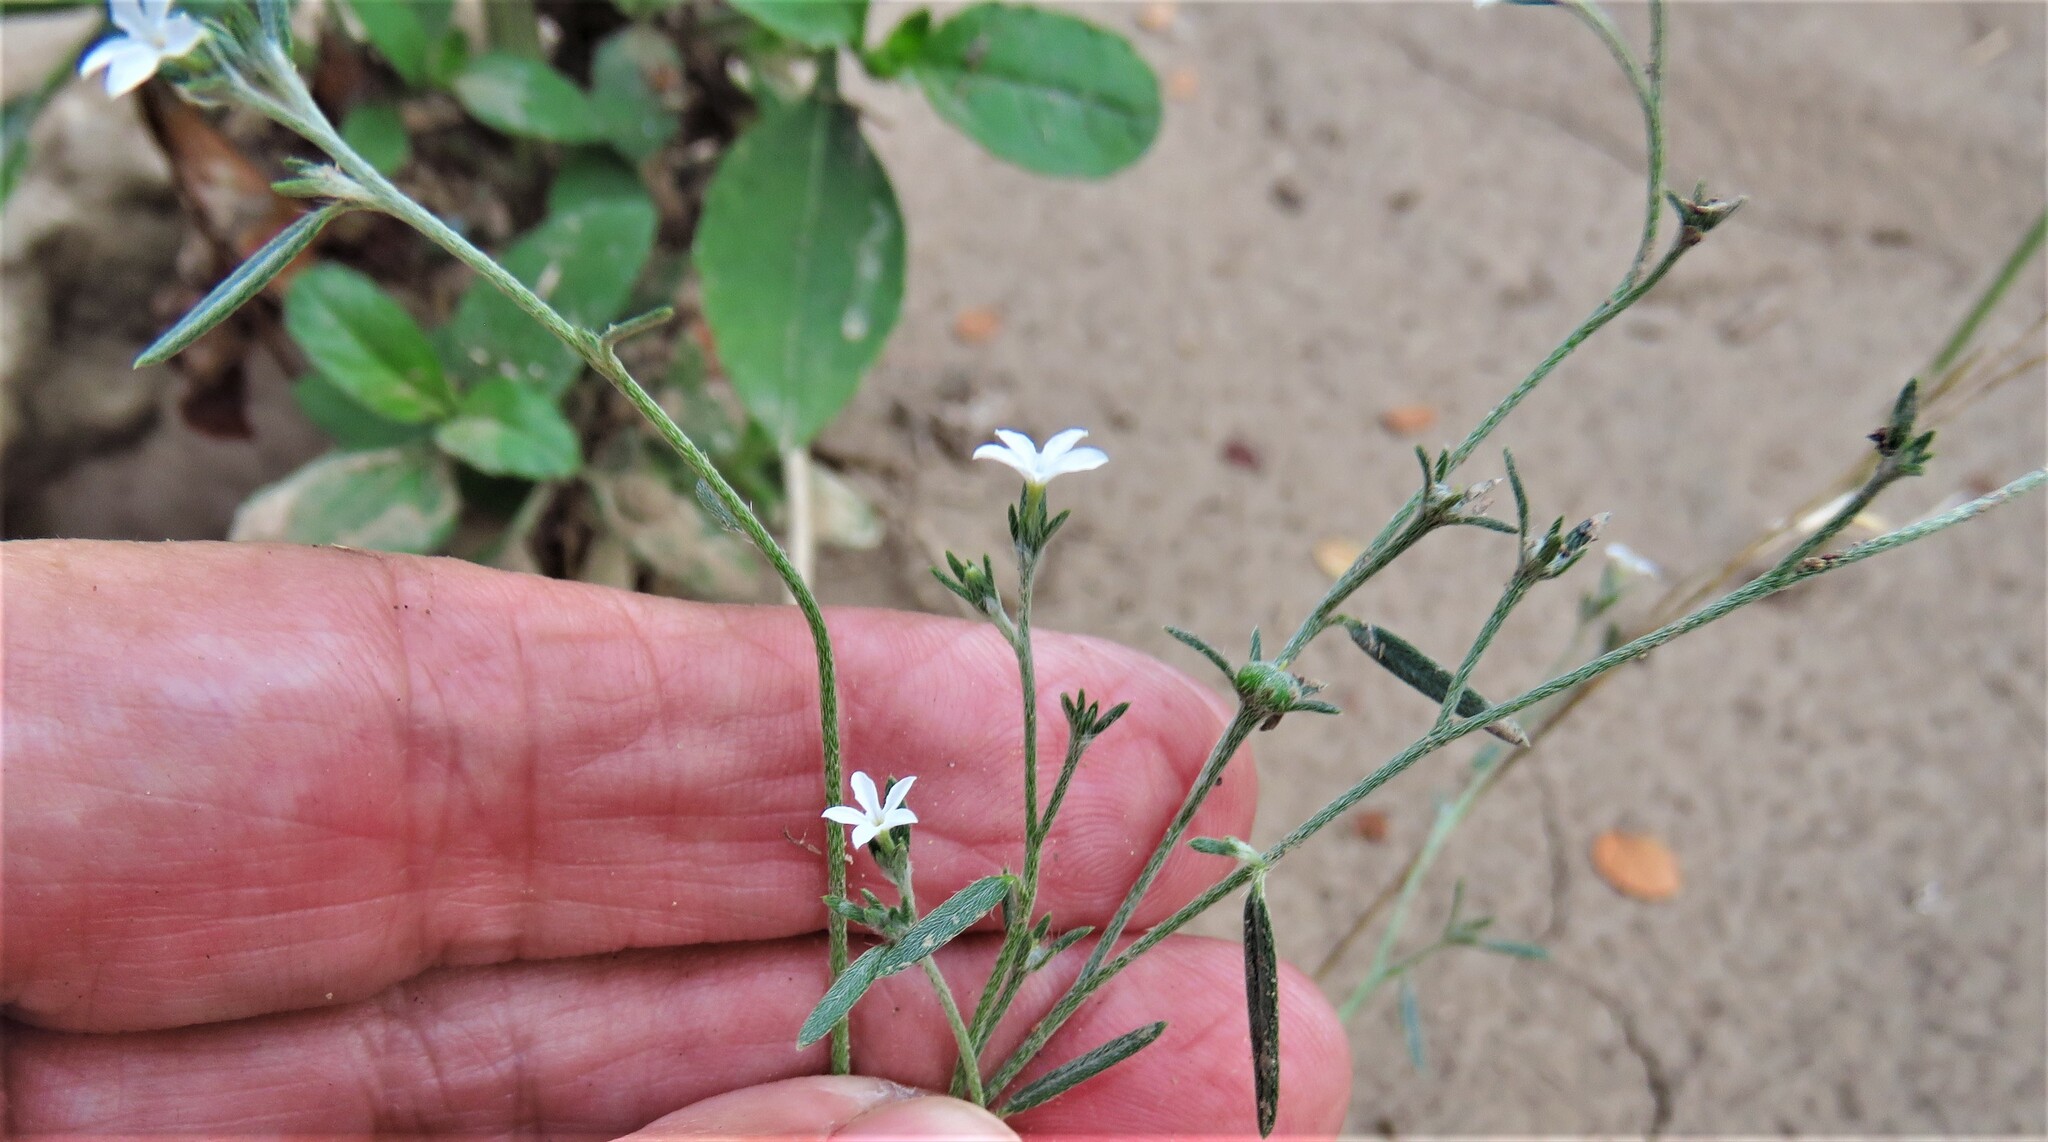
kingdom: Plantae
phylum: Tracheophyta
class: Magnoliopsida
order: Boraginales
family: Heliotropiaceae
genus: Euploca
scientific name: Euploca tenella
